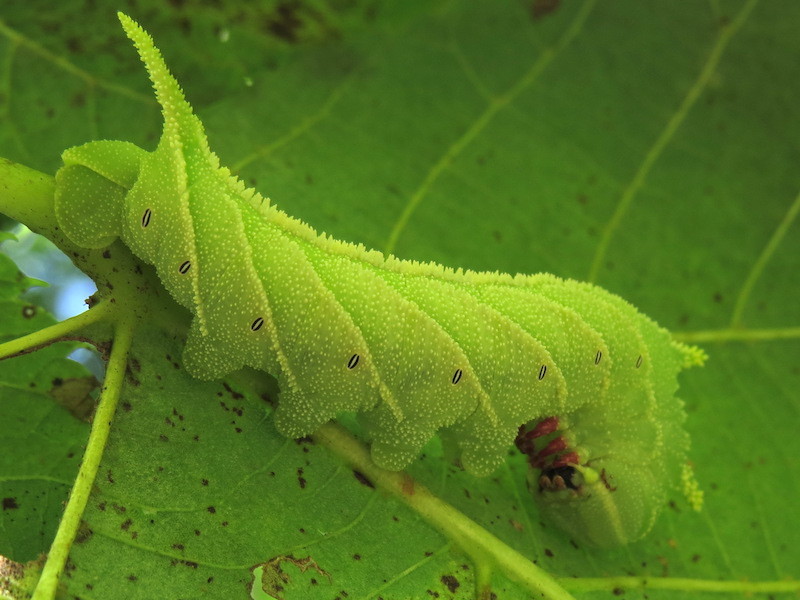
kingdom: Animalia
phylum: Arthropoda
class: Insecta
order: Lepidoptera
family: Sphingidae
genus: Ceratomia
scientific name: Ceratomia amyntor
